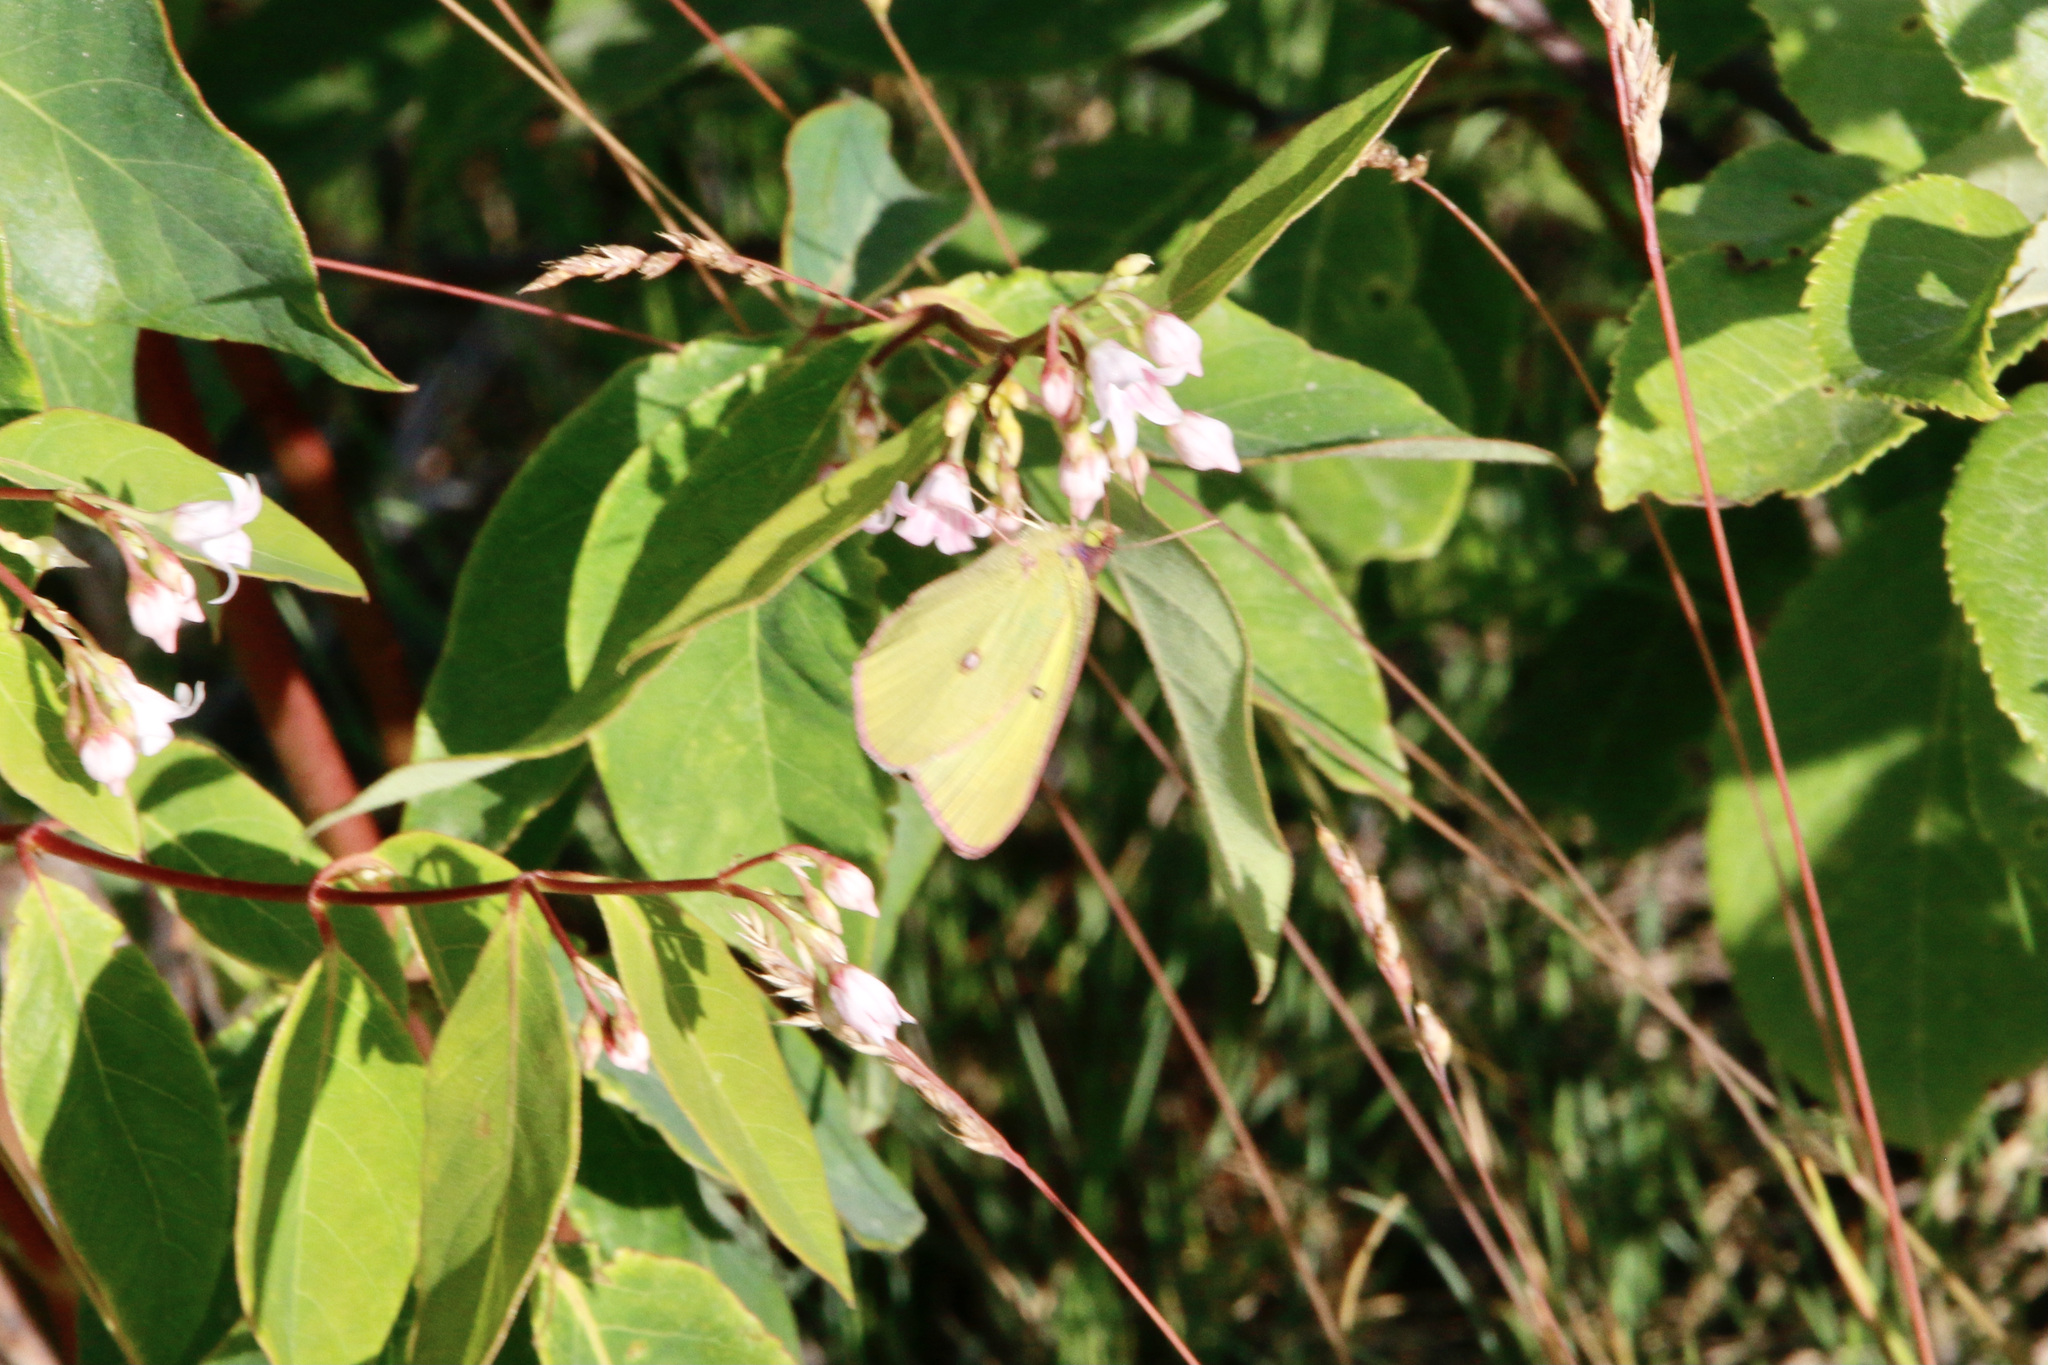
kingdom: Animalia
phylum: Arthropoda
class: Insecta
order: Lepidoptera
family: Pieridae
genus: Colias
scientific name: Colias interior
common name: Pink-edged sulphur
